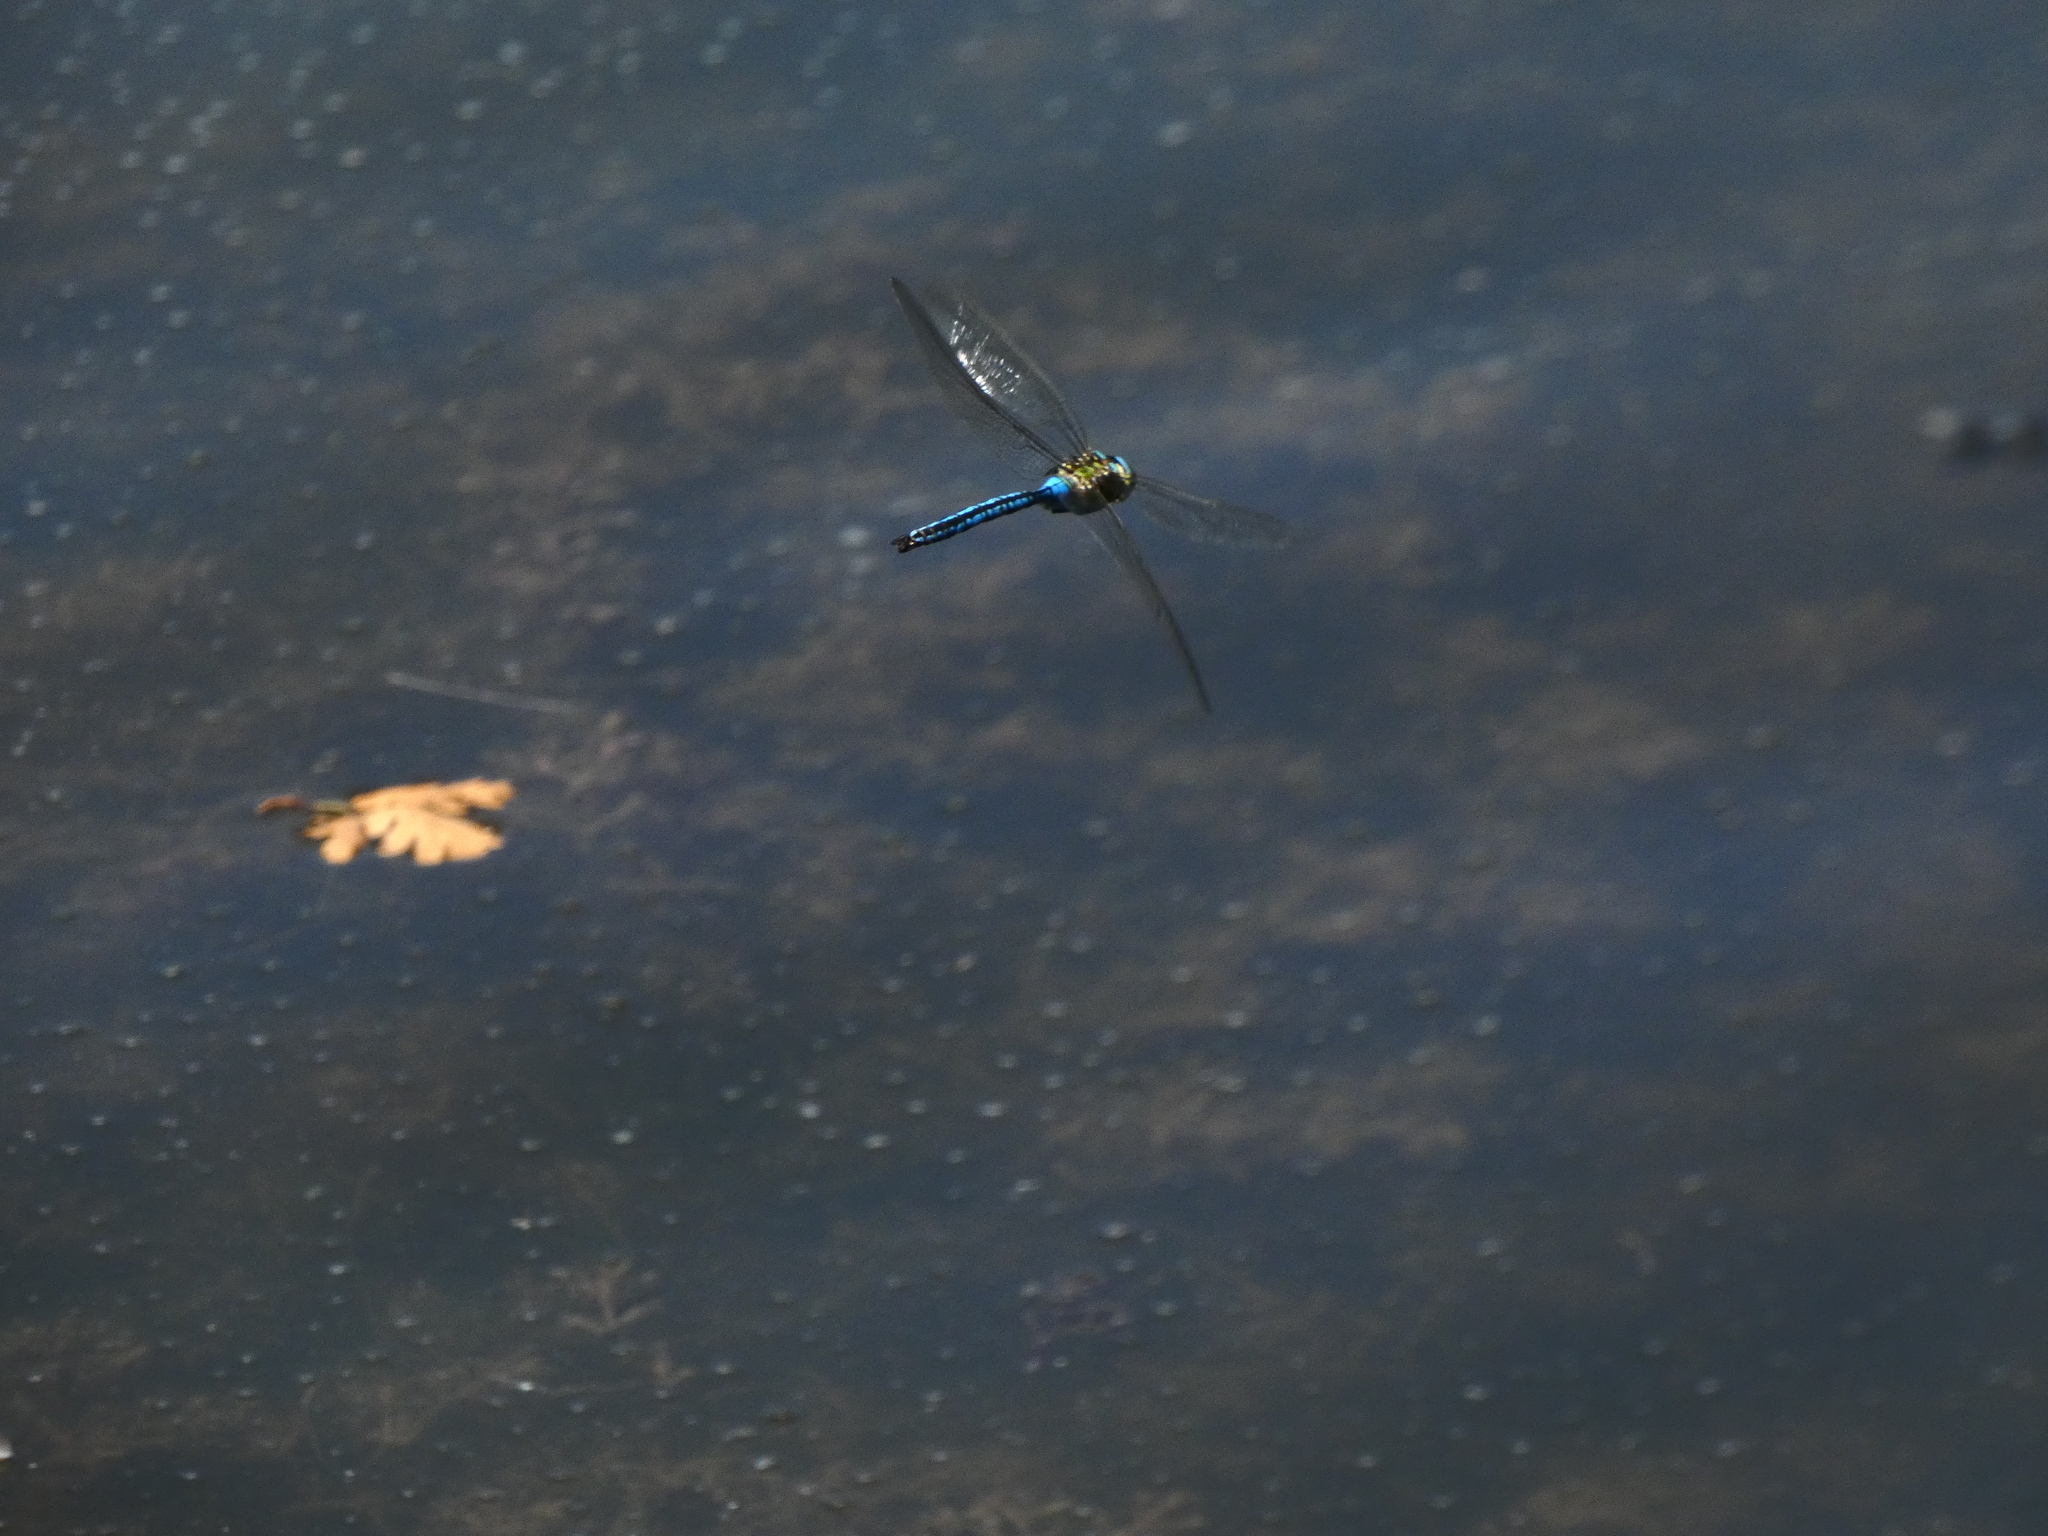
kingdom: Animalia
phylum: Arthropoda
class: Insecta
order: Odonata
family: Aeshnidae
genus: Anax
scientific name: Anax imperator
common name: Emperor dragonfly
